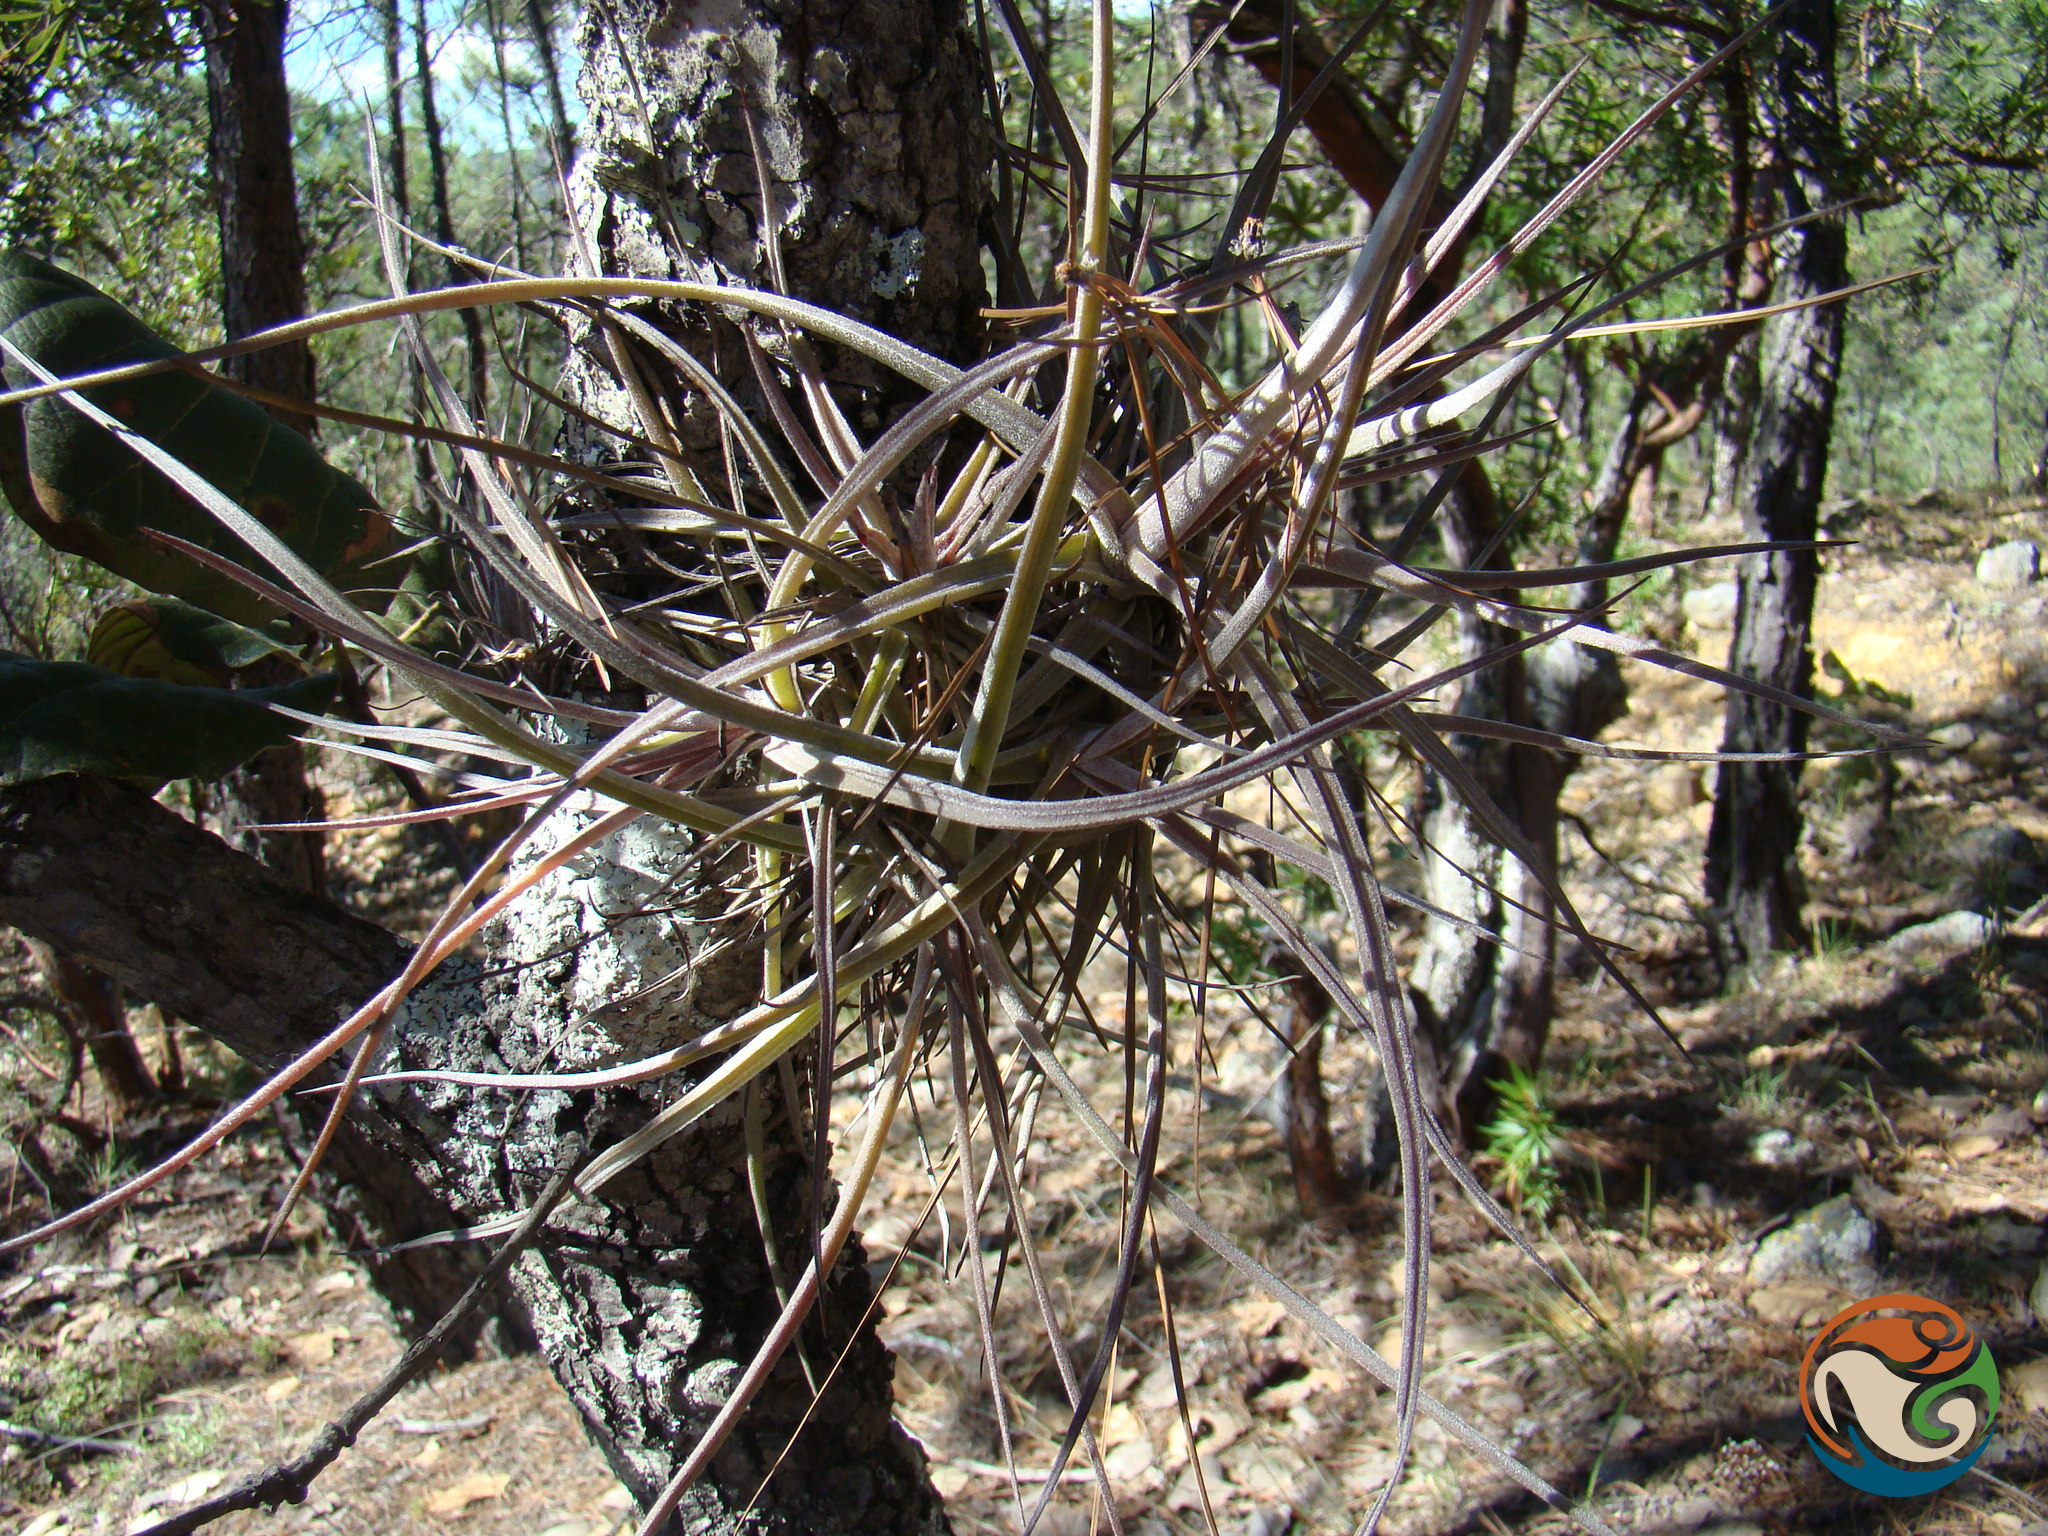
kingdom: Plantae
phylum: Tracheophyta
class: Liliopsida
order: Poales
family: Bromeliaceae
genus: Tillandsia
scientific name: Tillandsia schiedeana
